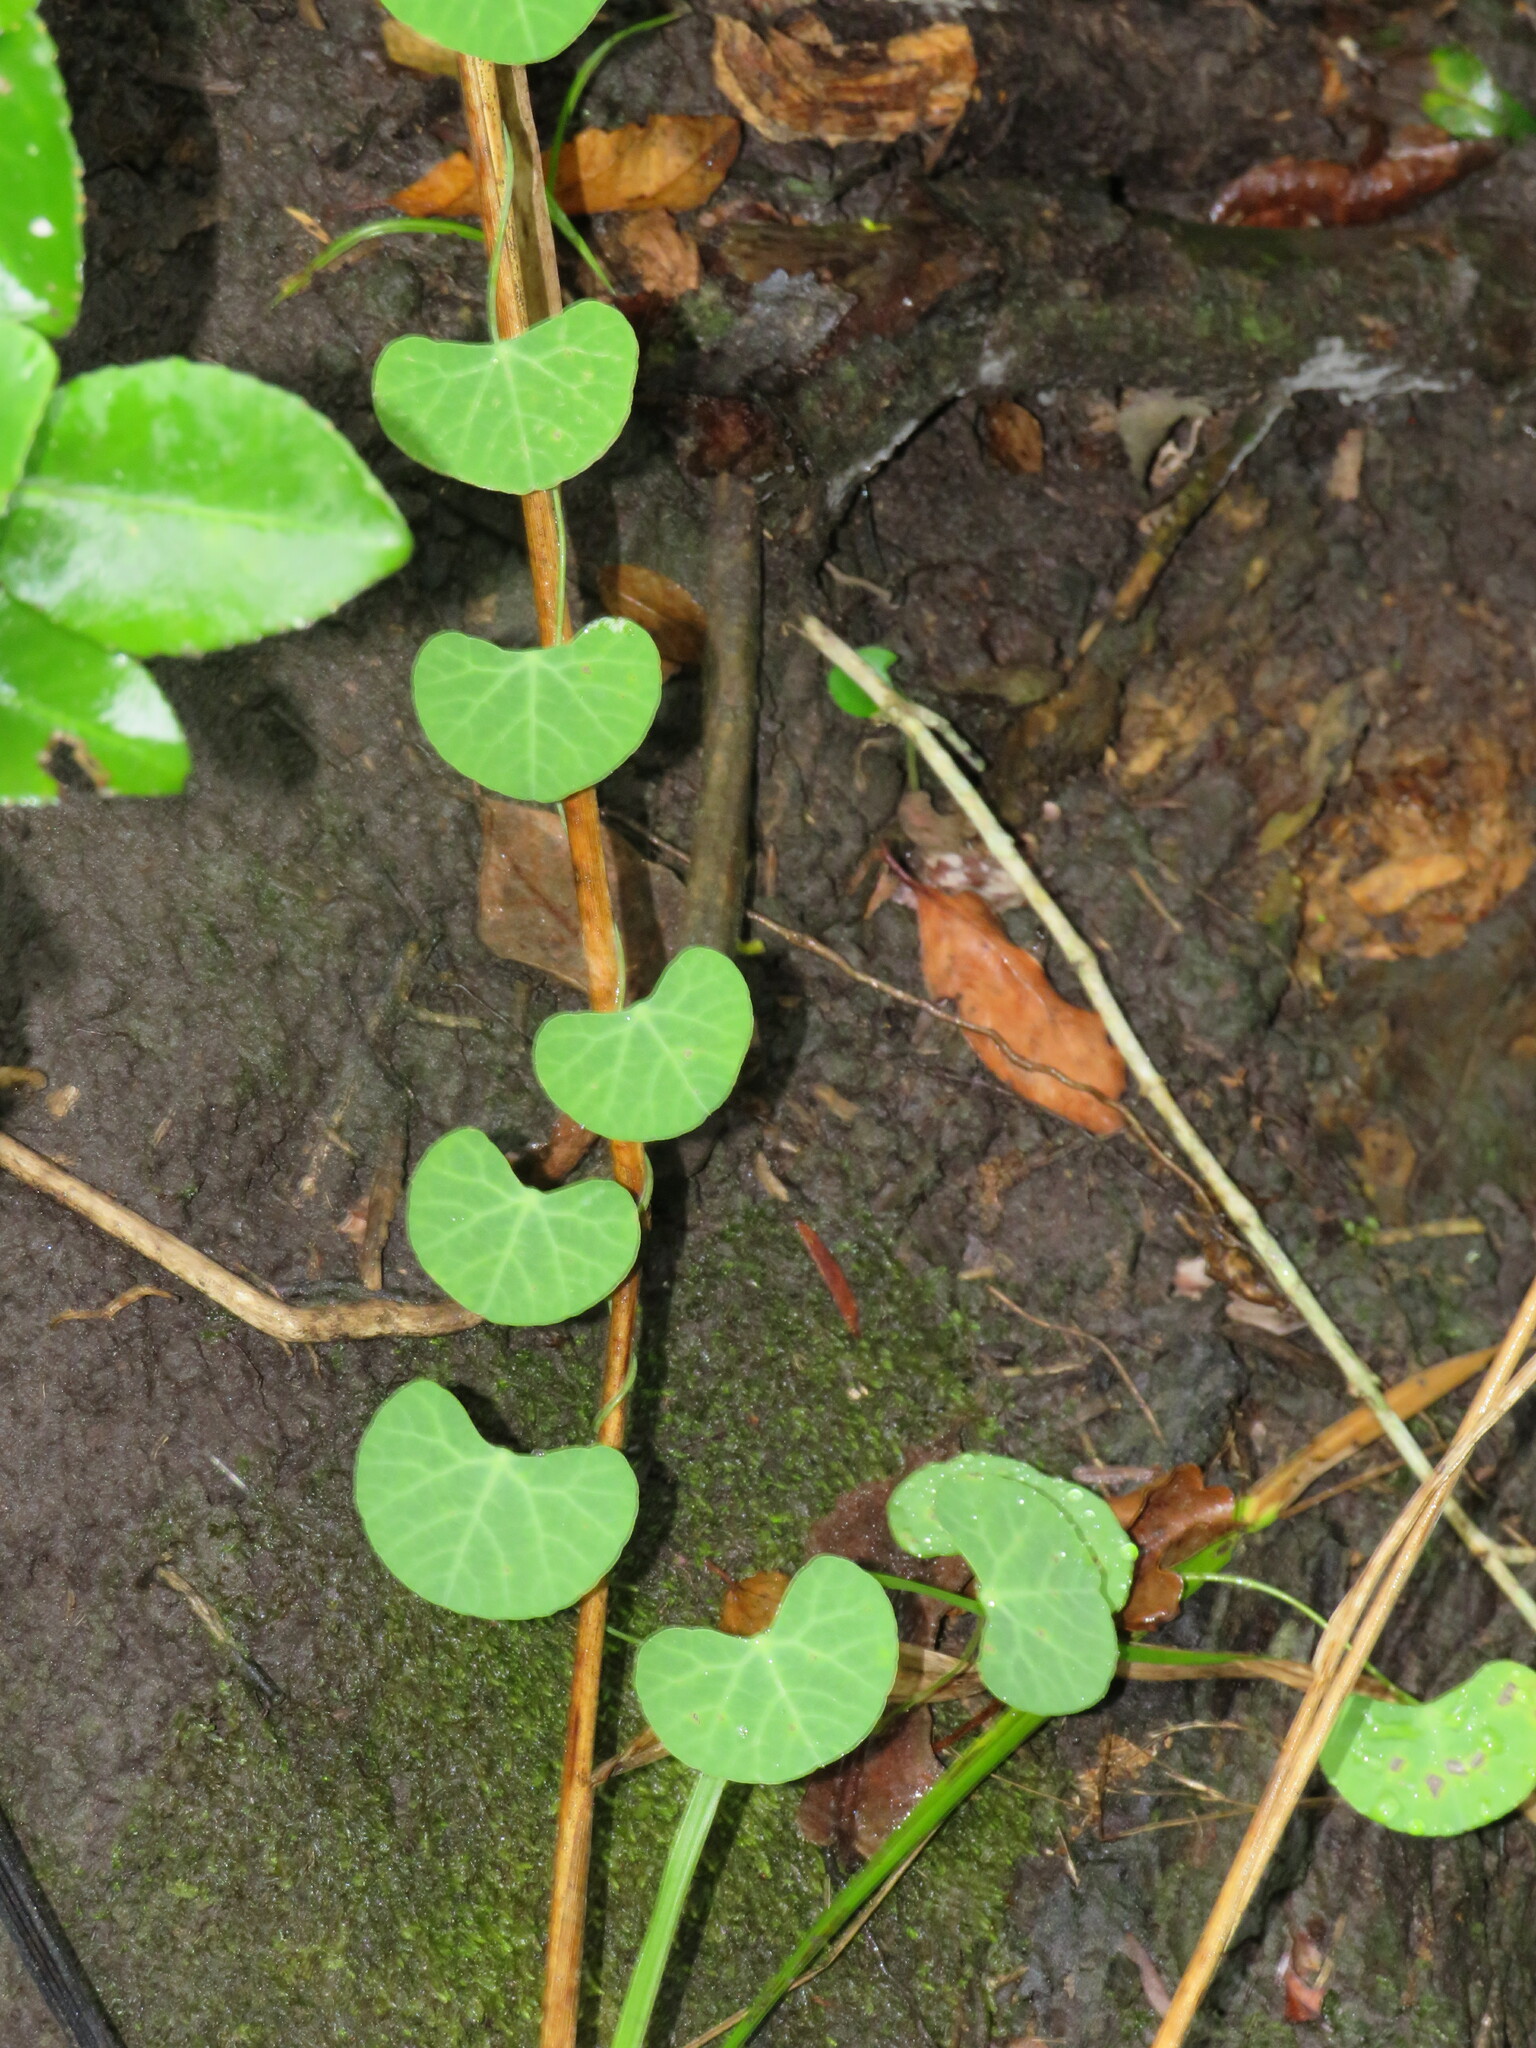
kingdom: Plantae
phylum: Tracheophyta
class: Magnoliopsida
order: Ranunculales
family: Menispermaceae
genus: Cissampelos
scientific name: Cissampelos torulosa
